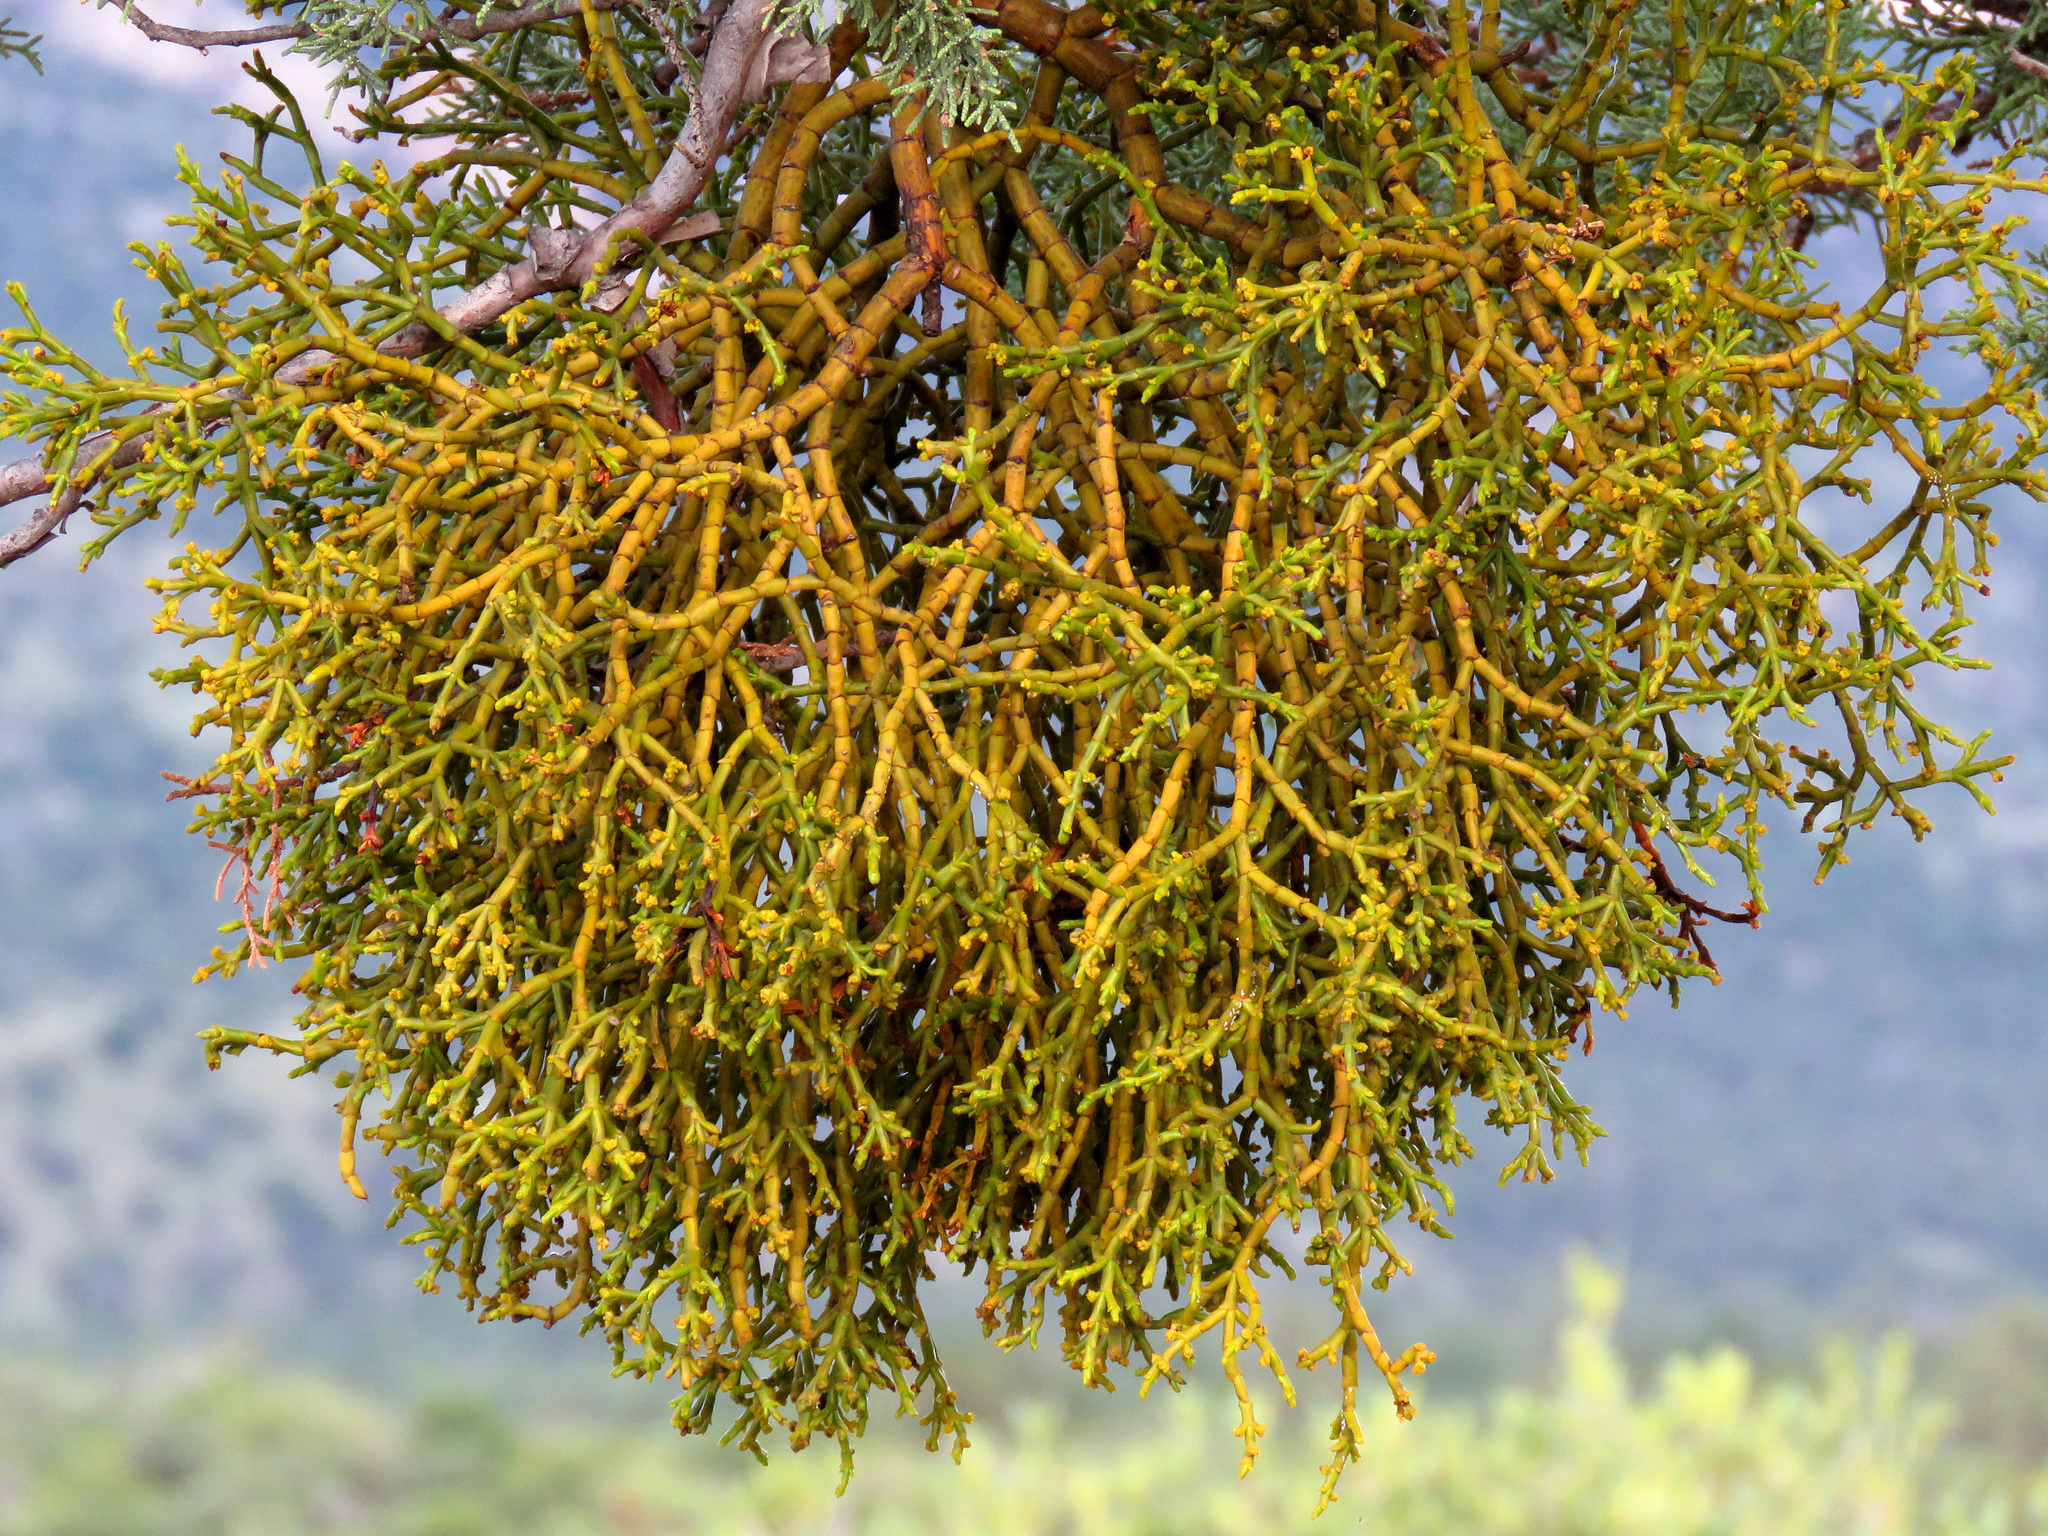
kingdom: Plantae
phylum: Tracheophyta
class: Magnoliopsida
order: Santalales
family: Viscaceae
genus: Phoradendron
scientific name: Phoradendron juniperinum
